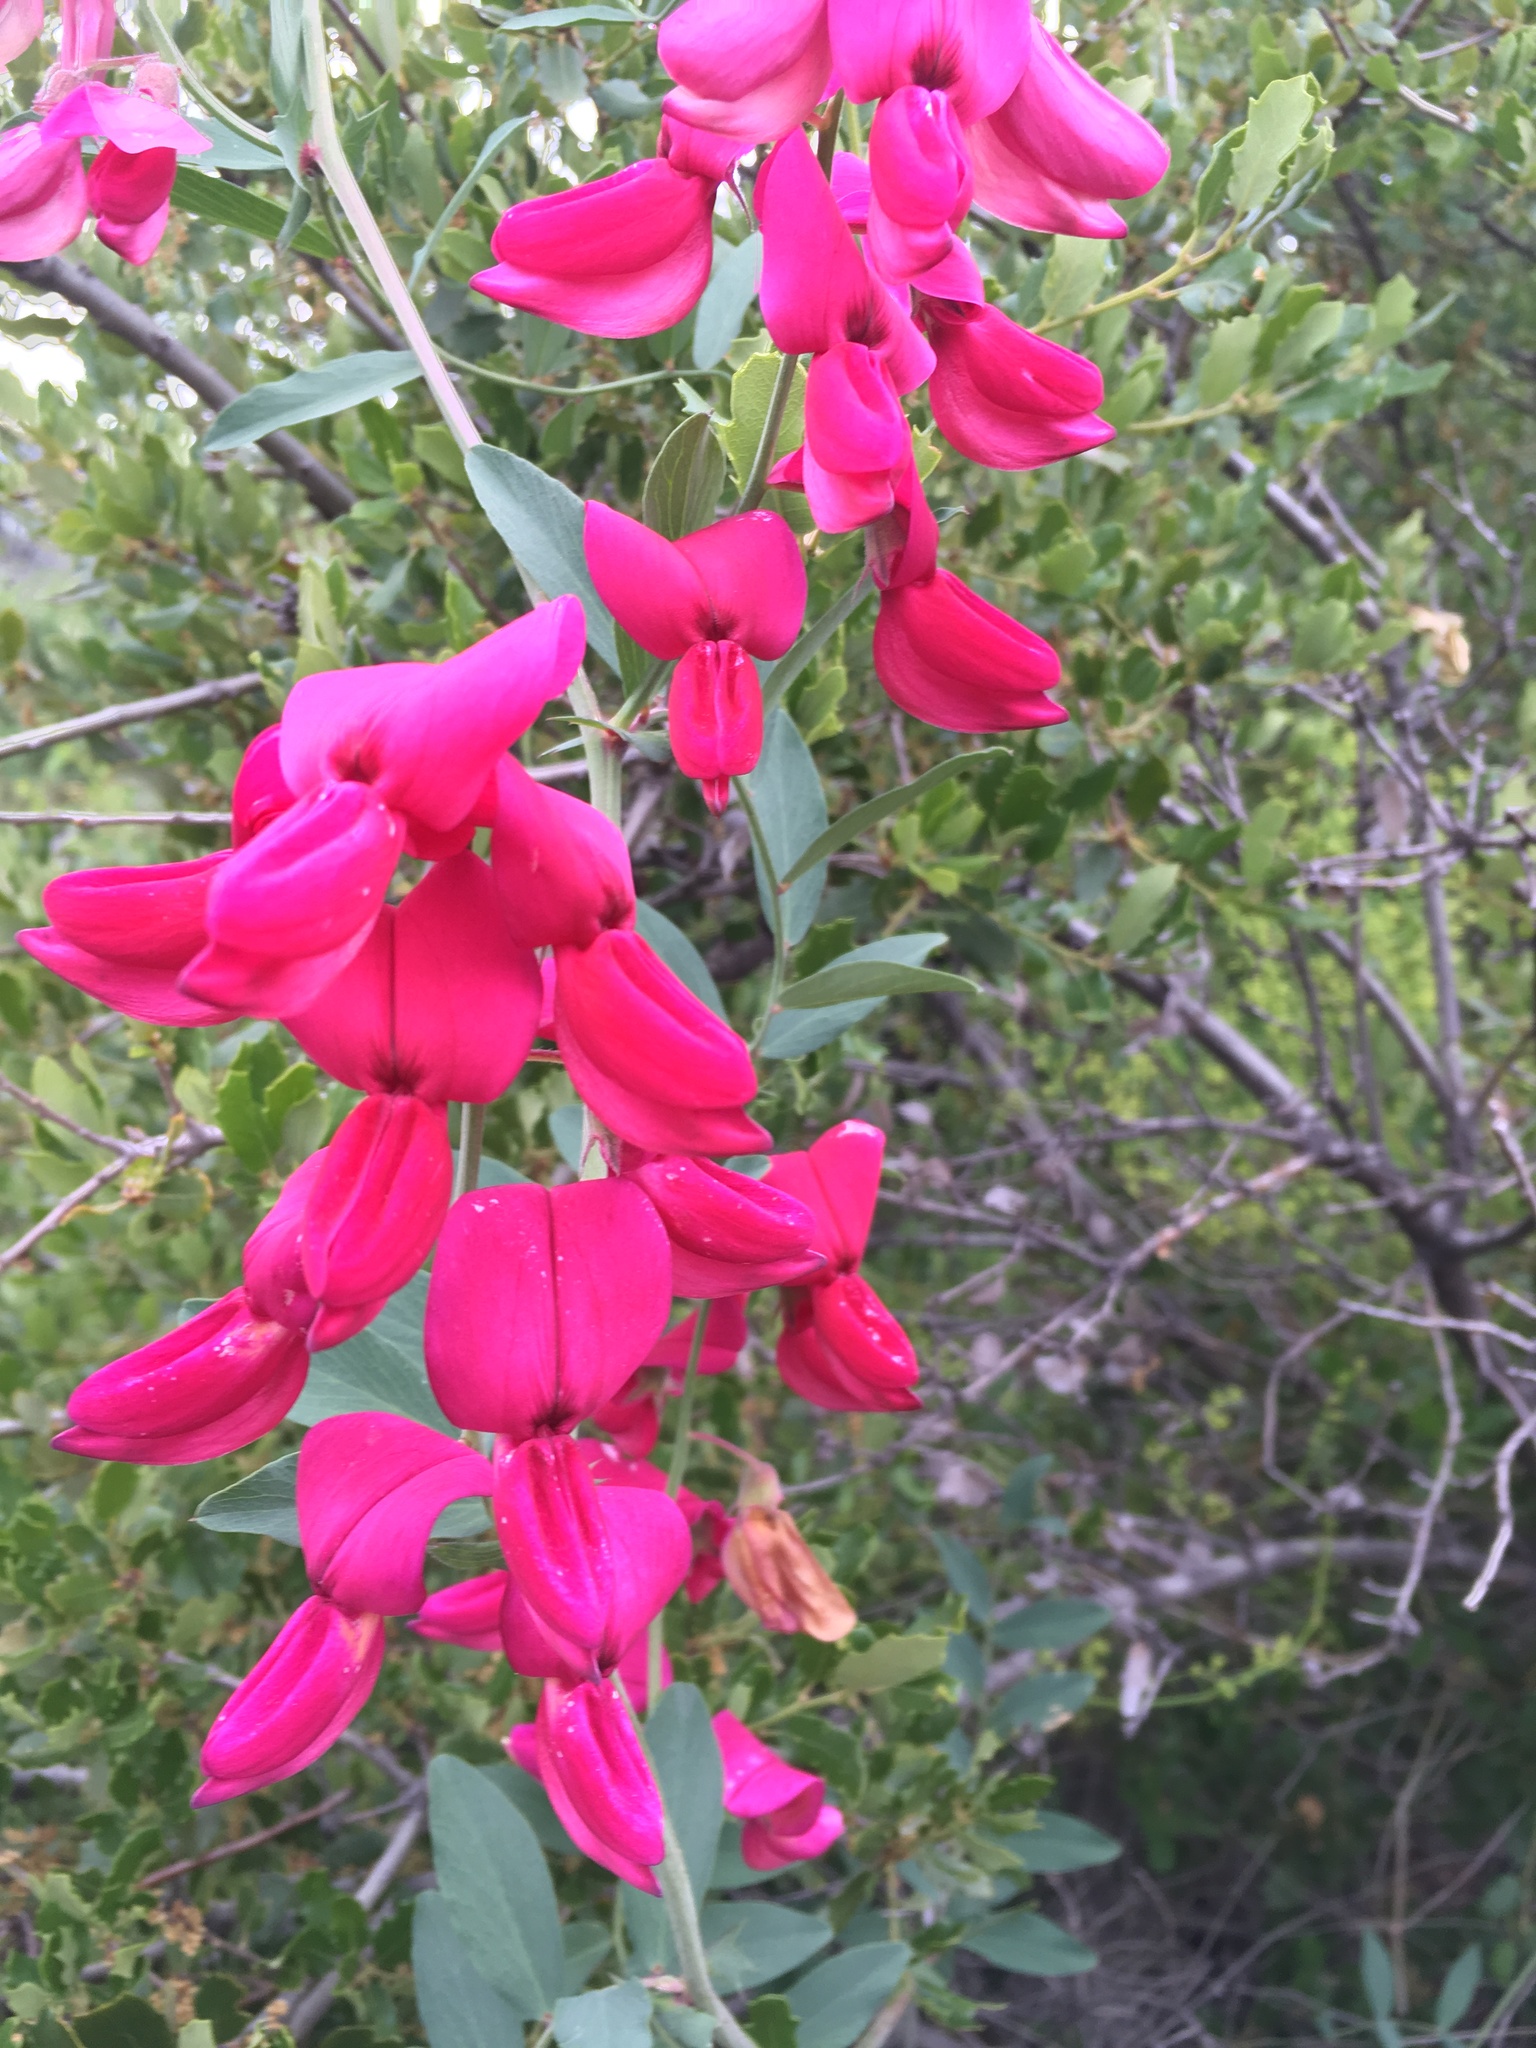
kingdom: Plantae
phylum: Tracheophyta
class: Magnoliopsida
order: Fabales
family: Fabaceae
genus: Lathyrus
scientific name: Lathyrus splendens
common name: Campo-pea
